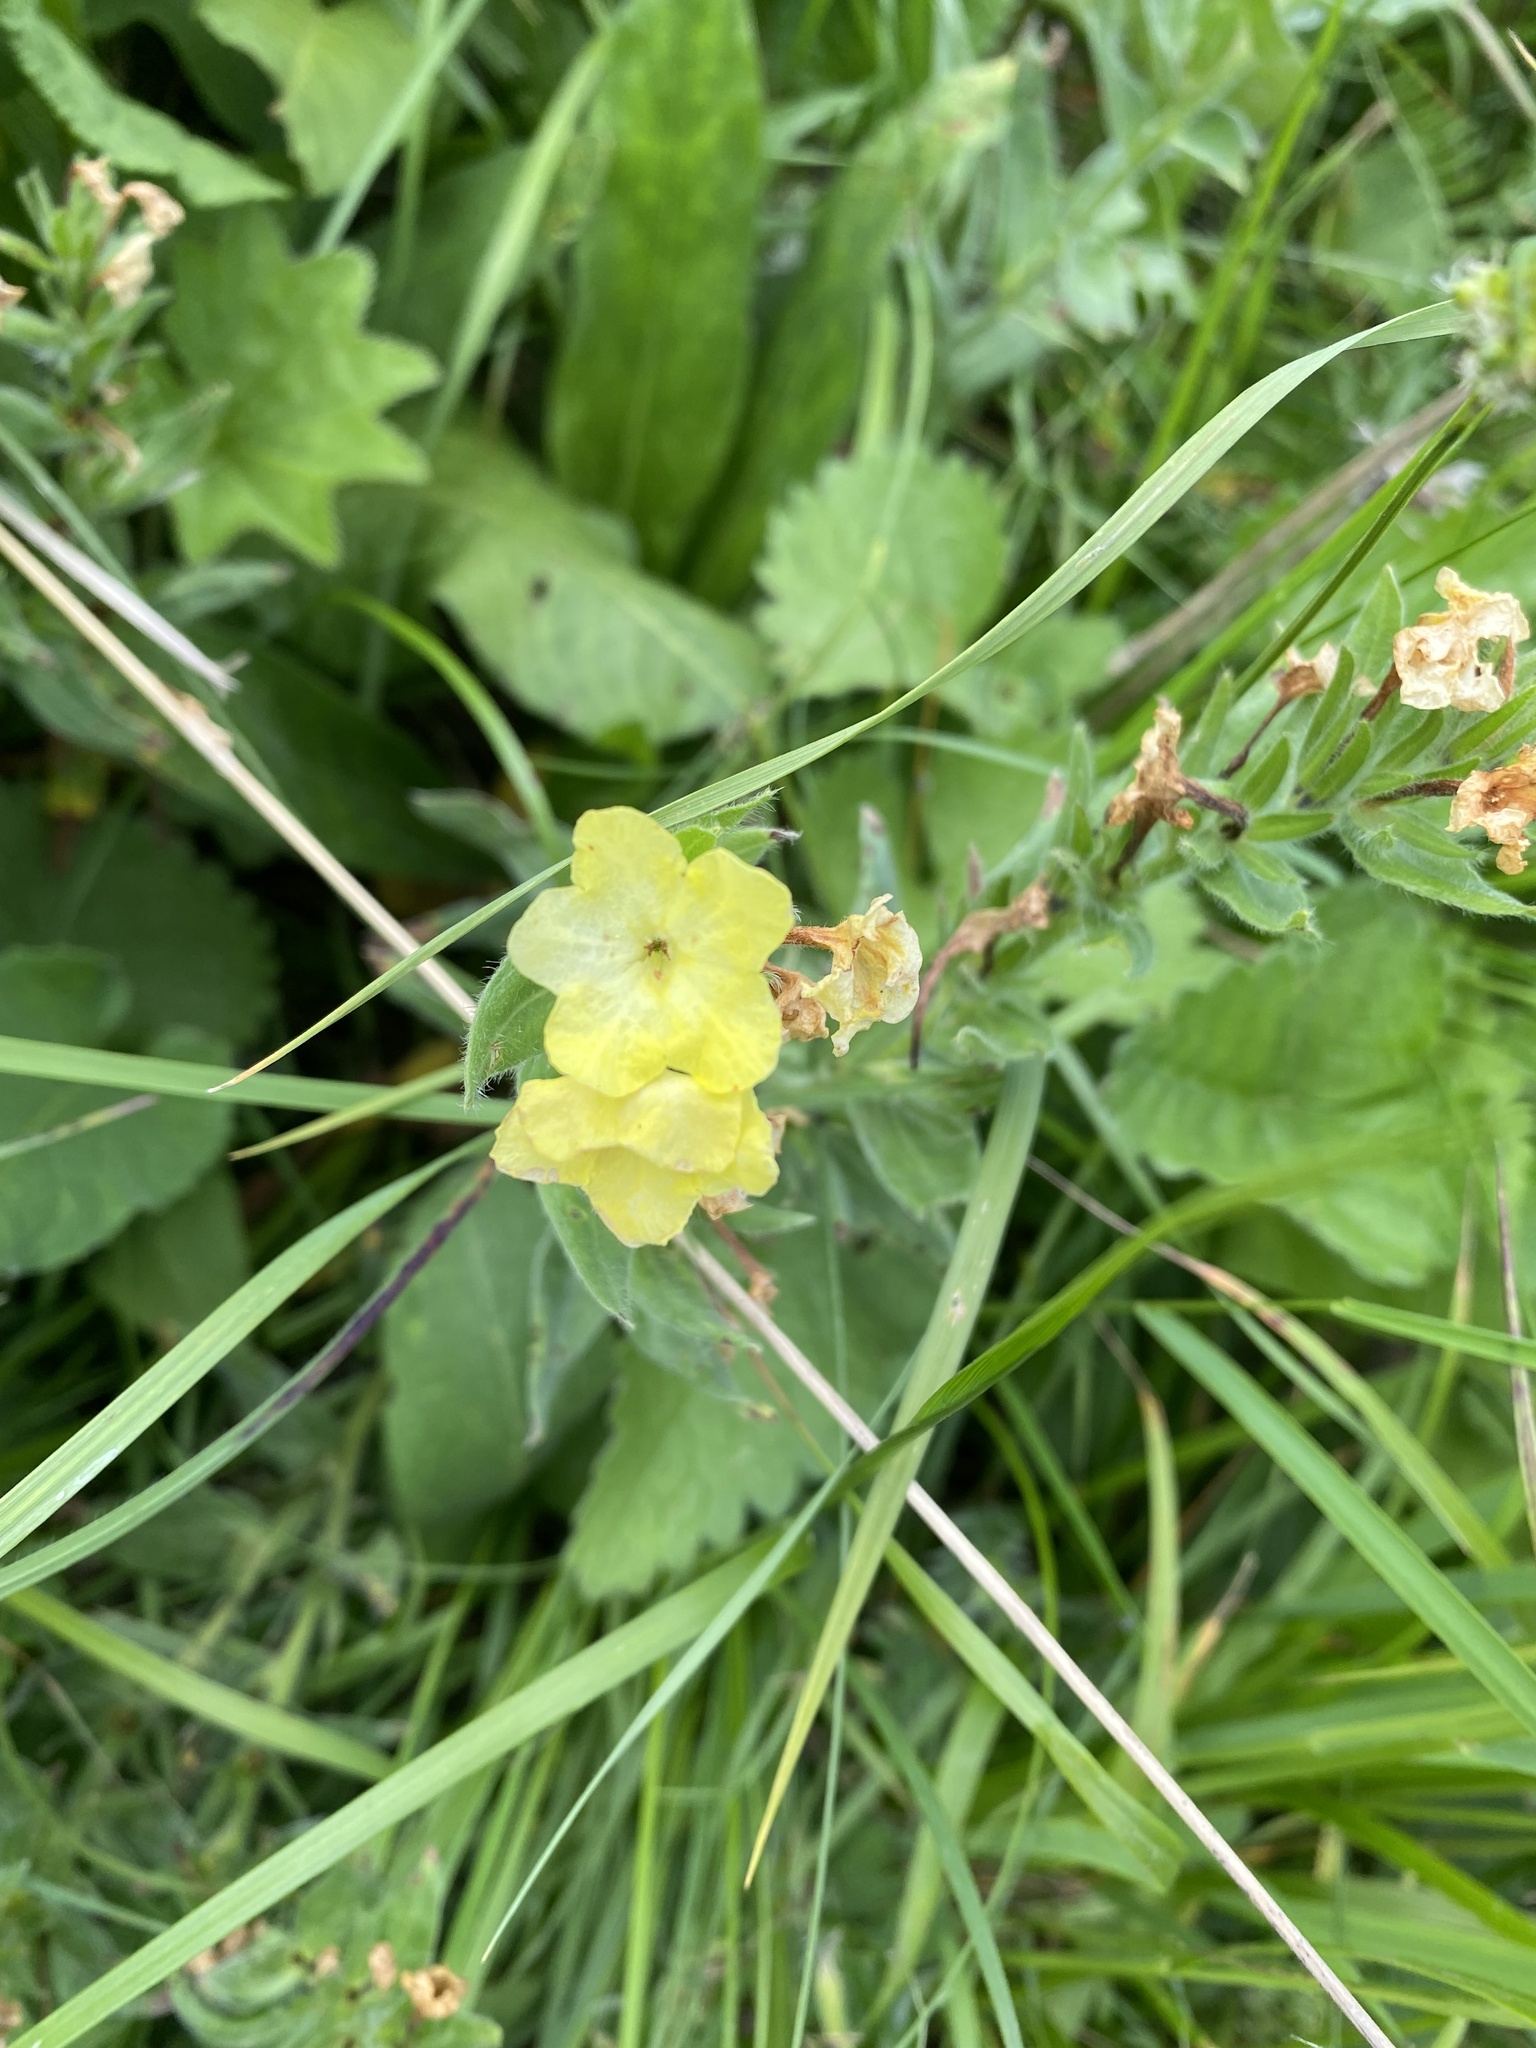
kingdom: Plantae
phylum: Tracheophyta
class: Magnoliopsida
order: Boraginales
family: Boraginaceae
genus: Huynhia
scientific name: Huynhia pulchra
